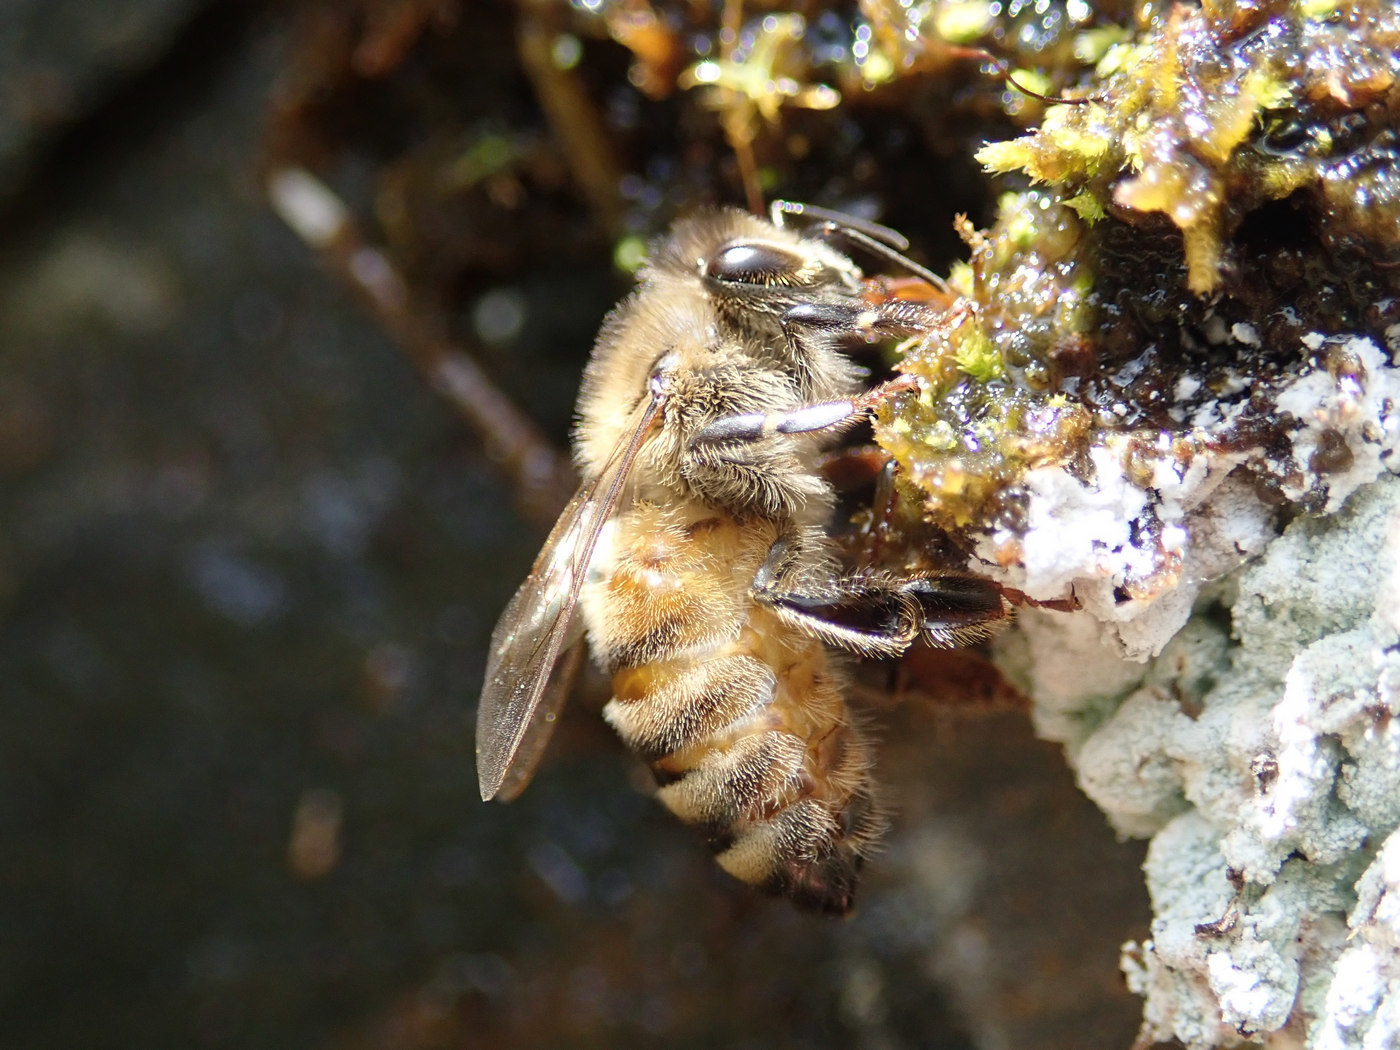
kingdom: Animalia
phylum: Arthropoda
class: Insecta
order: Hymenoptera
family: Apidae
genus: Apis
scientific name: Apis mellifera
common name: Honey bee
